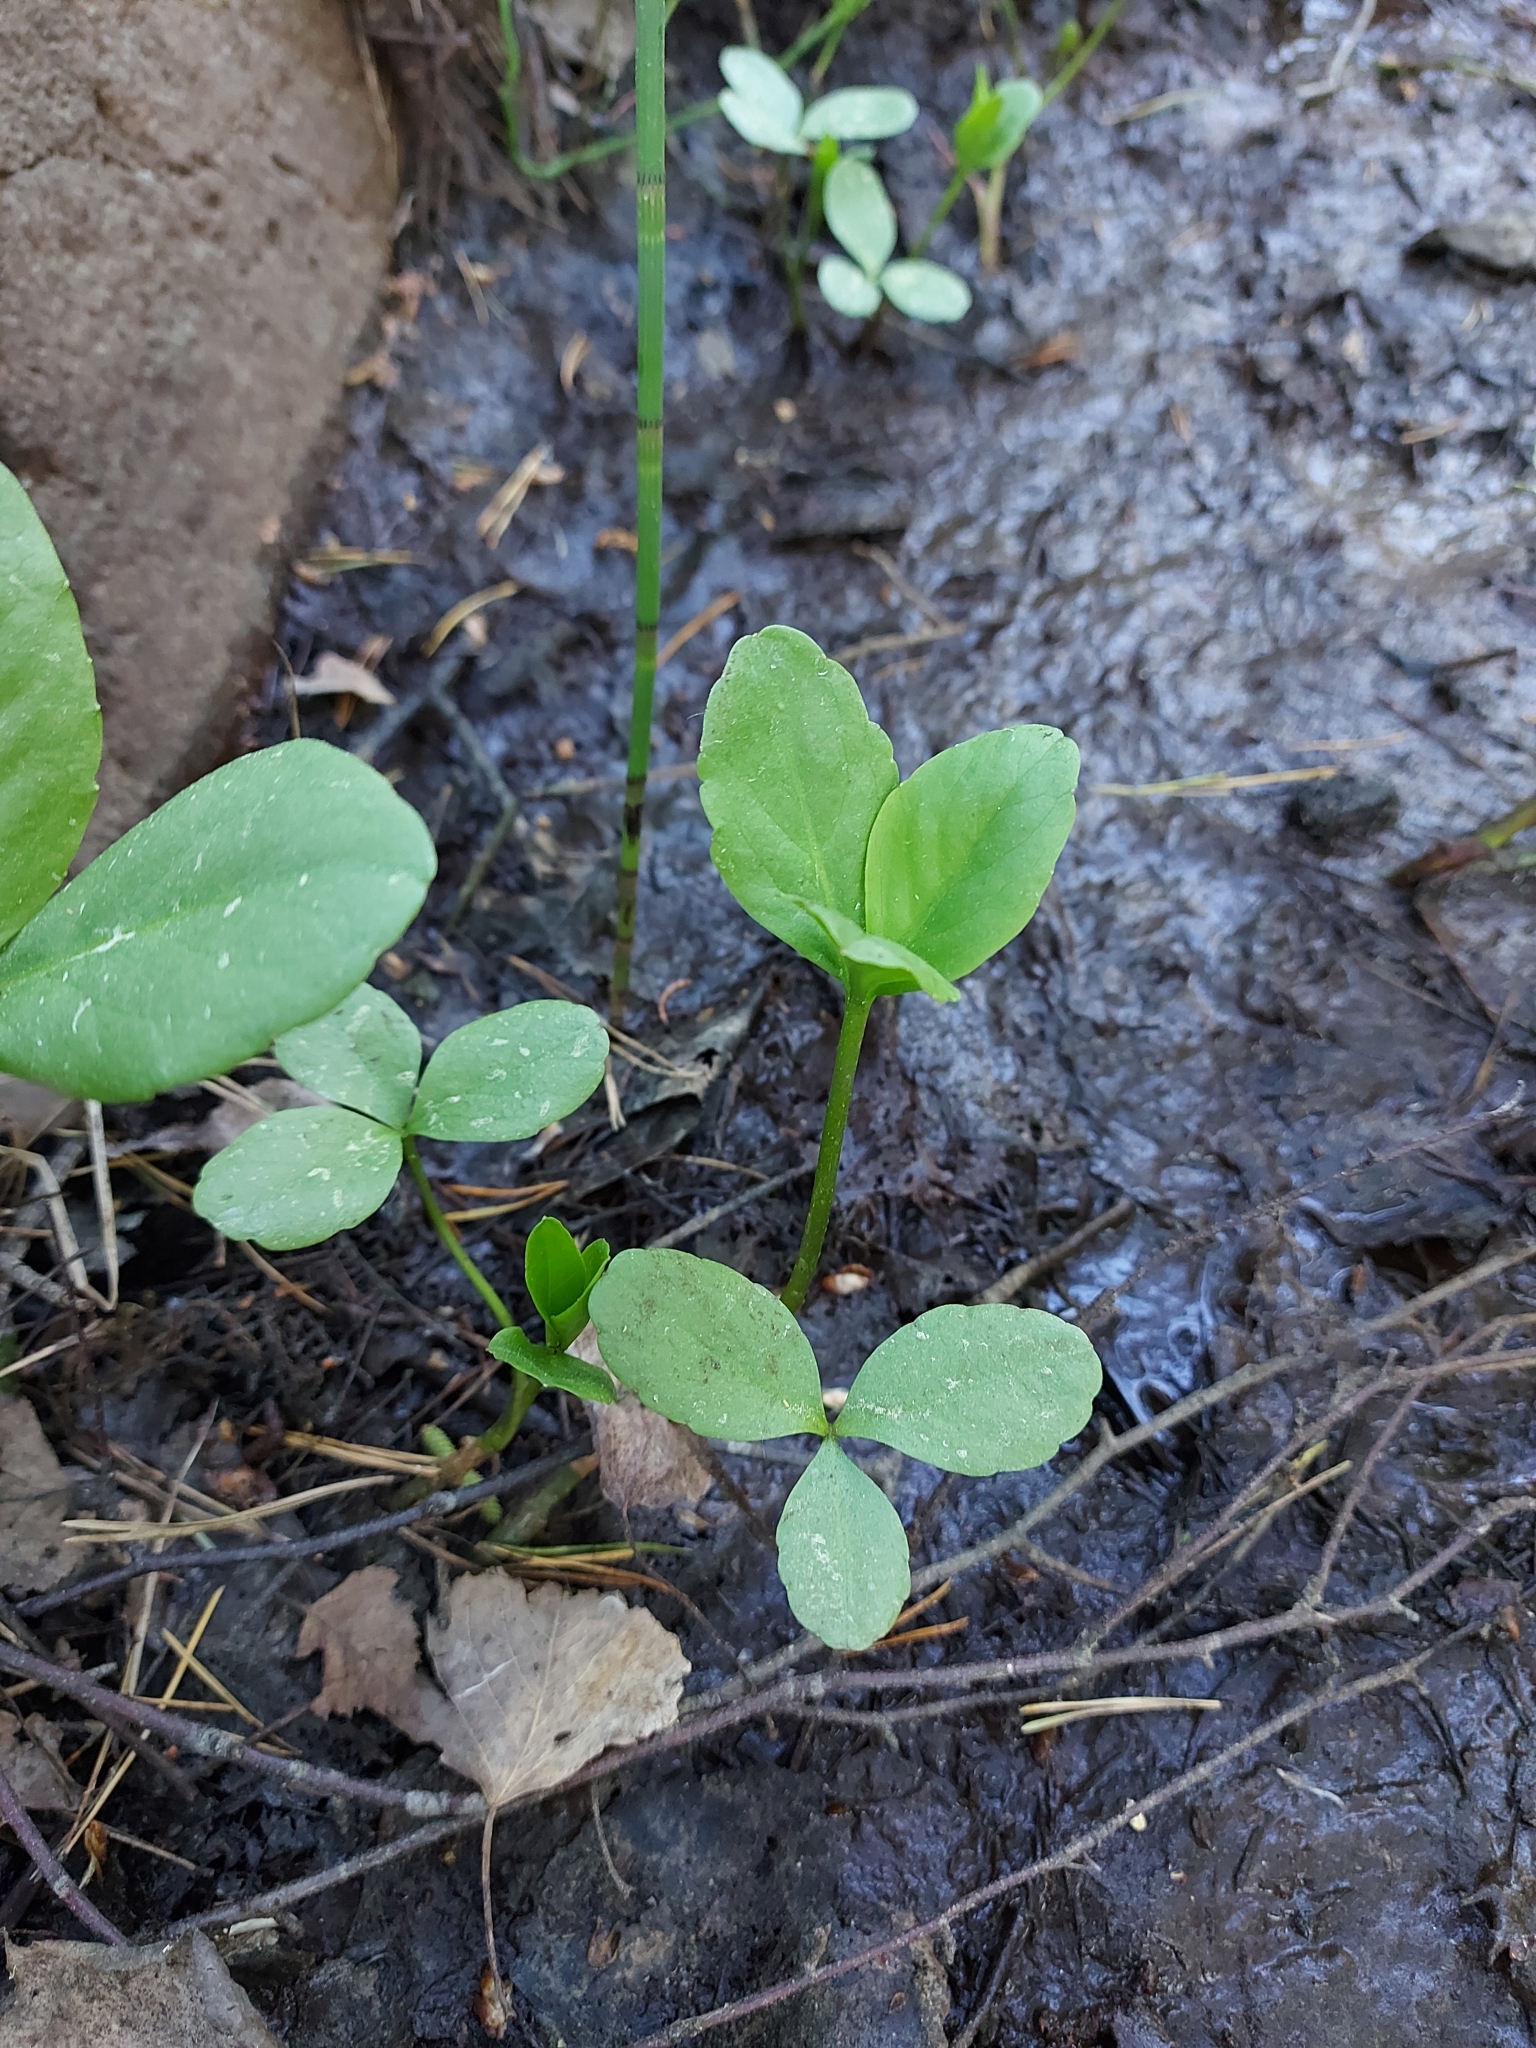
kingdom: Plantae
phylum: Tracheophyta
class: Magnoliopsida
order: Asterales
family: Menyanthaceae
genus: Menyanthes
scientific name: Menyanthes trifoliata
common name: Bogbean
